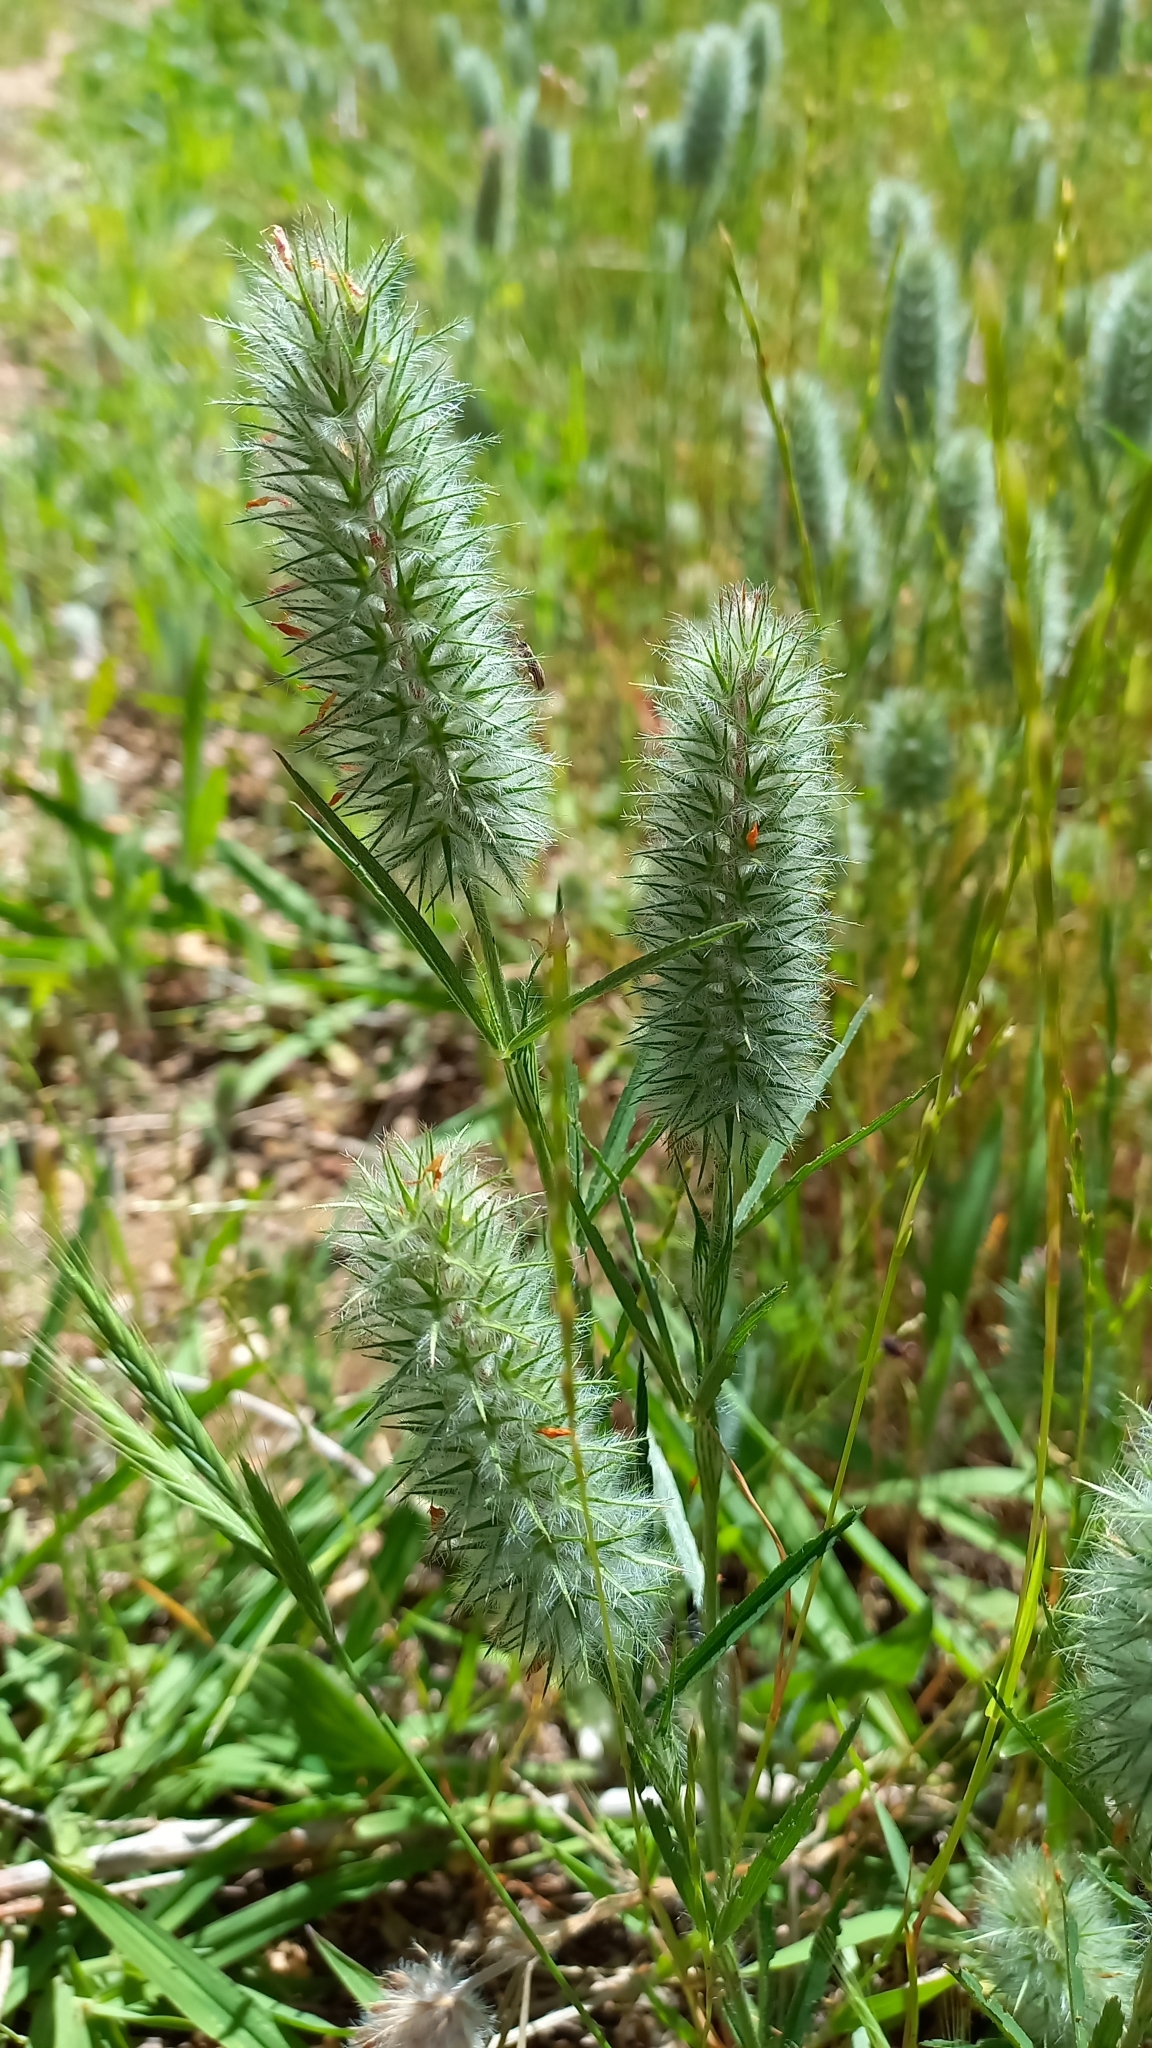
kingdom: Plantae
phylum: Tracheophyta
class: Magnoliopsida
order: Fabales
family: Fabaceae
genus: Trifolium
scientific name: Trifolium angustifolium
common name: Narrow clover
